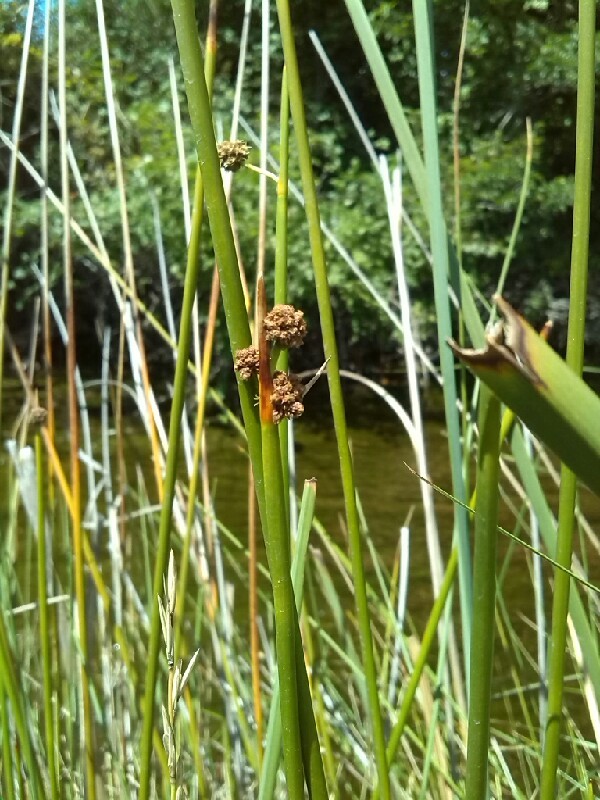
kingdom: Plantae
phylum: Tracheophyta
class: Liliopsida
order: Poales
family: Cyperaceae
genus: Scirpoides
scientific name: Scirpoides holoschoenus
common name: Round-headed club-rush
